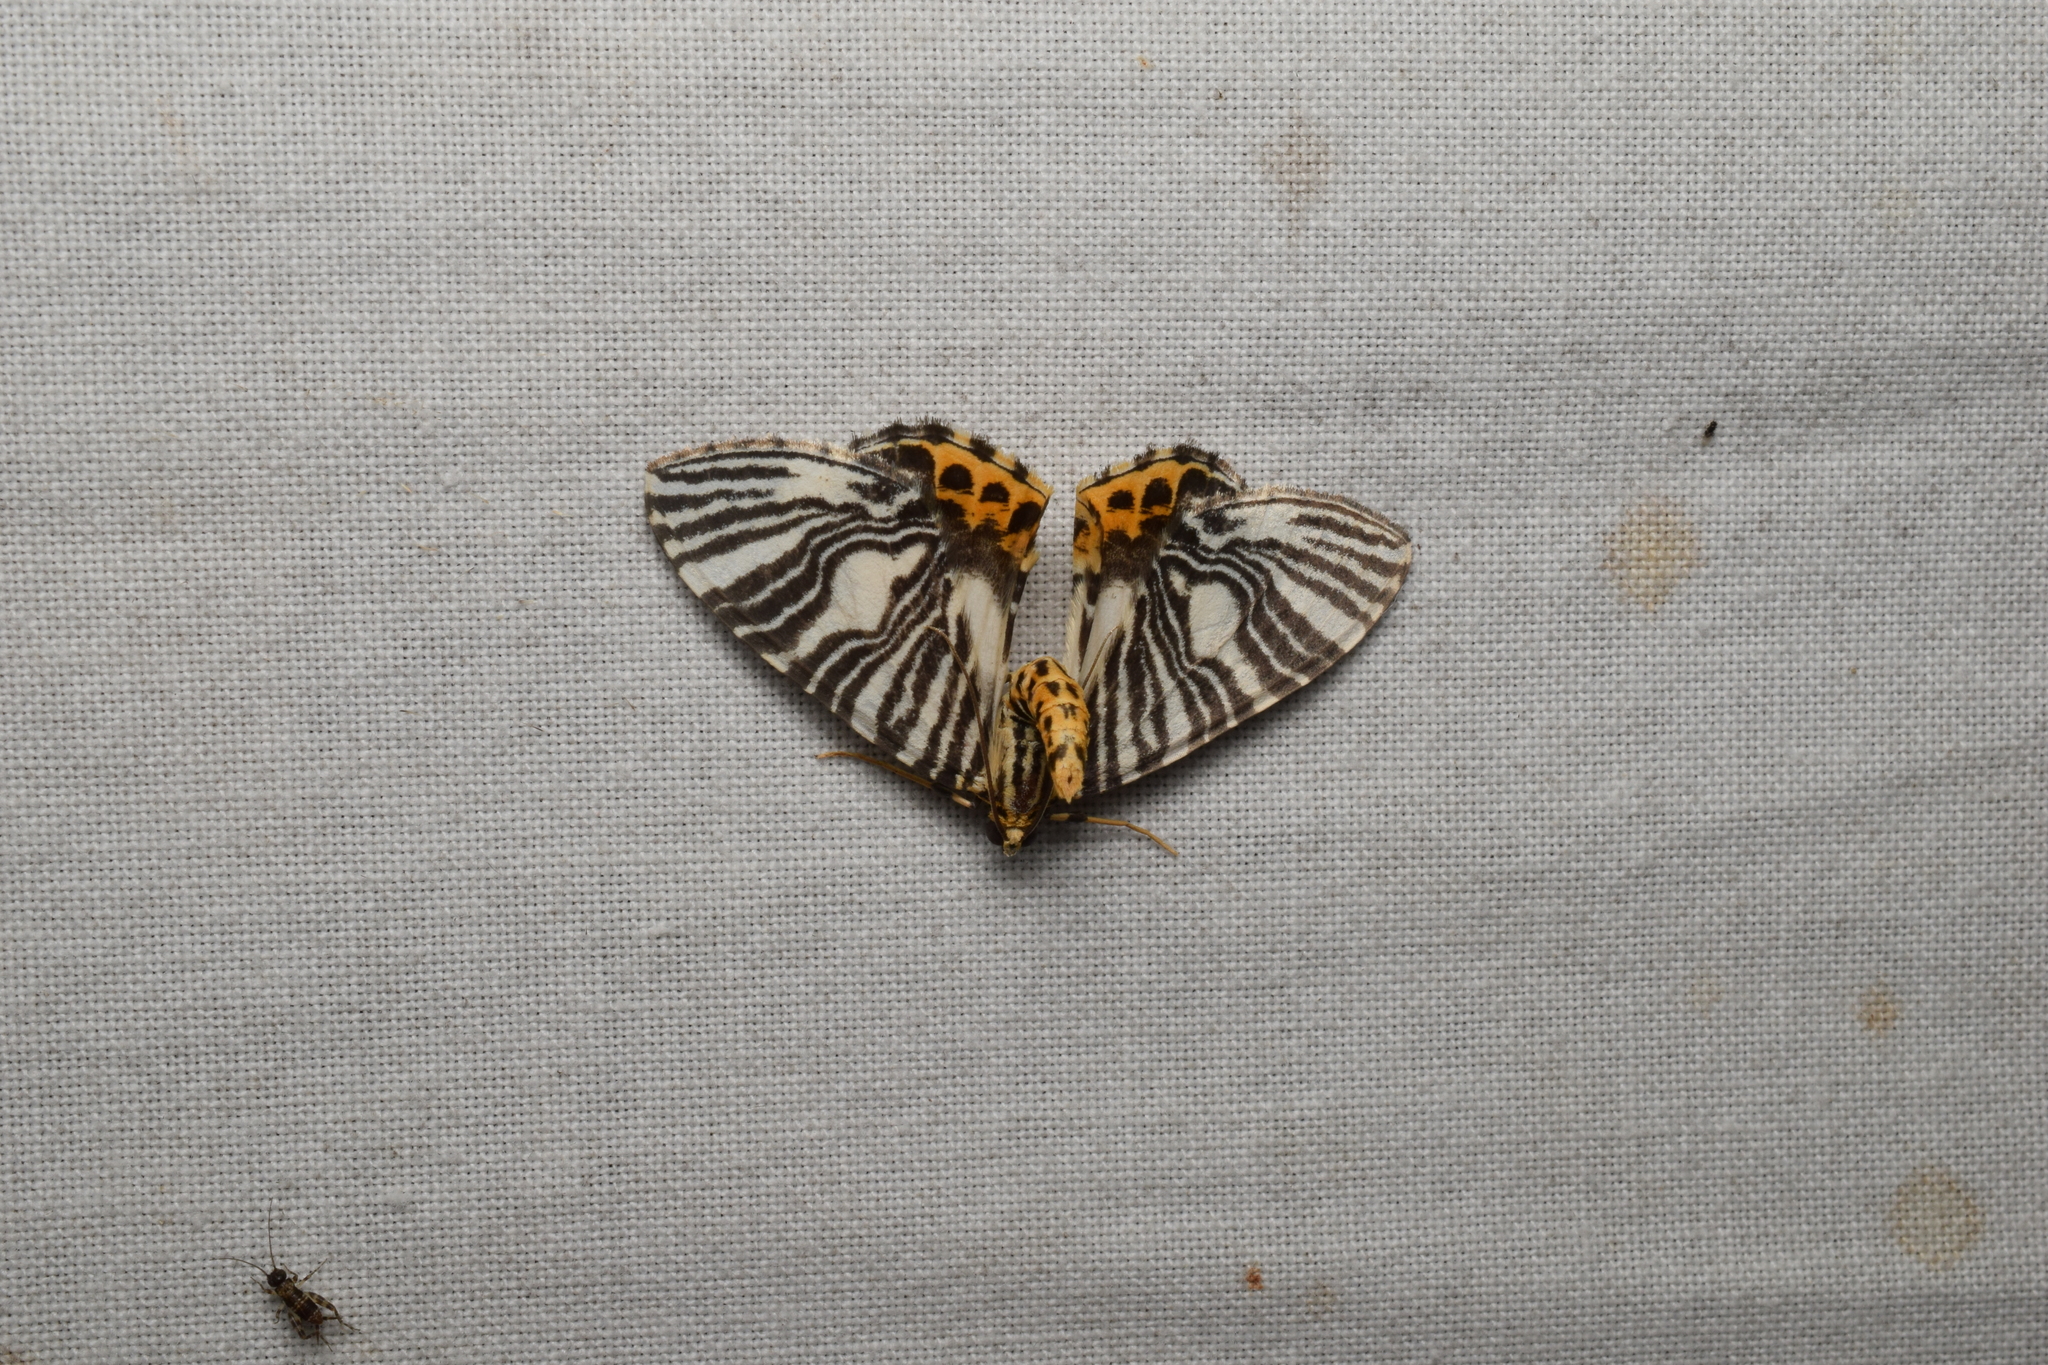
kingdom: Animalia
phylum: Arthropoda
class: Insecta
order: Lepidoptera
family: Geometridae
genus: Callabraxas
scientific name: Callabraxas compositata
